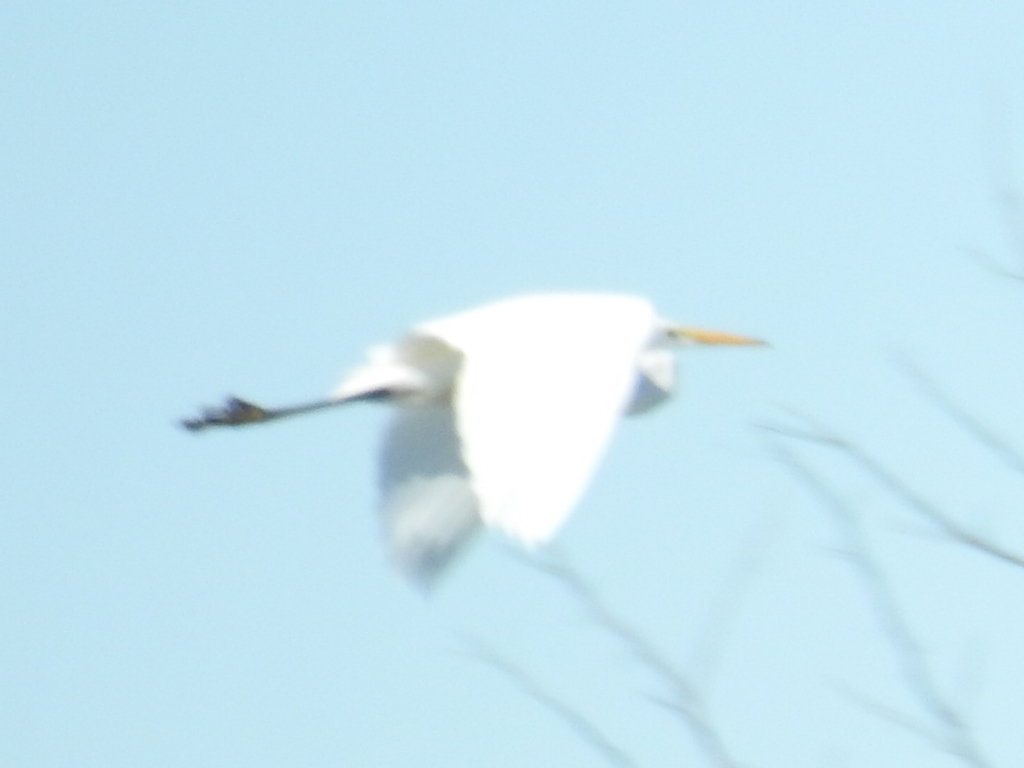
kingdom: Animalia
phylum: Chordata
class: Aves
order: Pelecaniformes
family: Ardeidae
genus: Ardea
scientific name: Ardea alba
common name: Great egret
